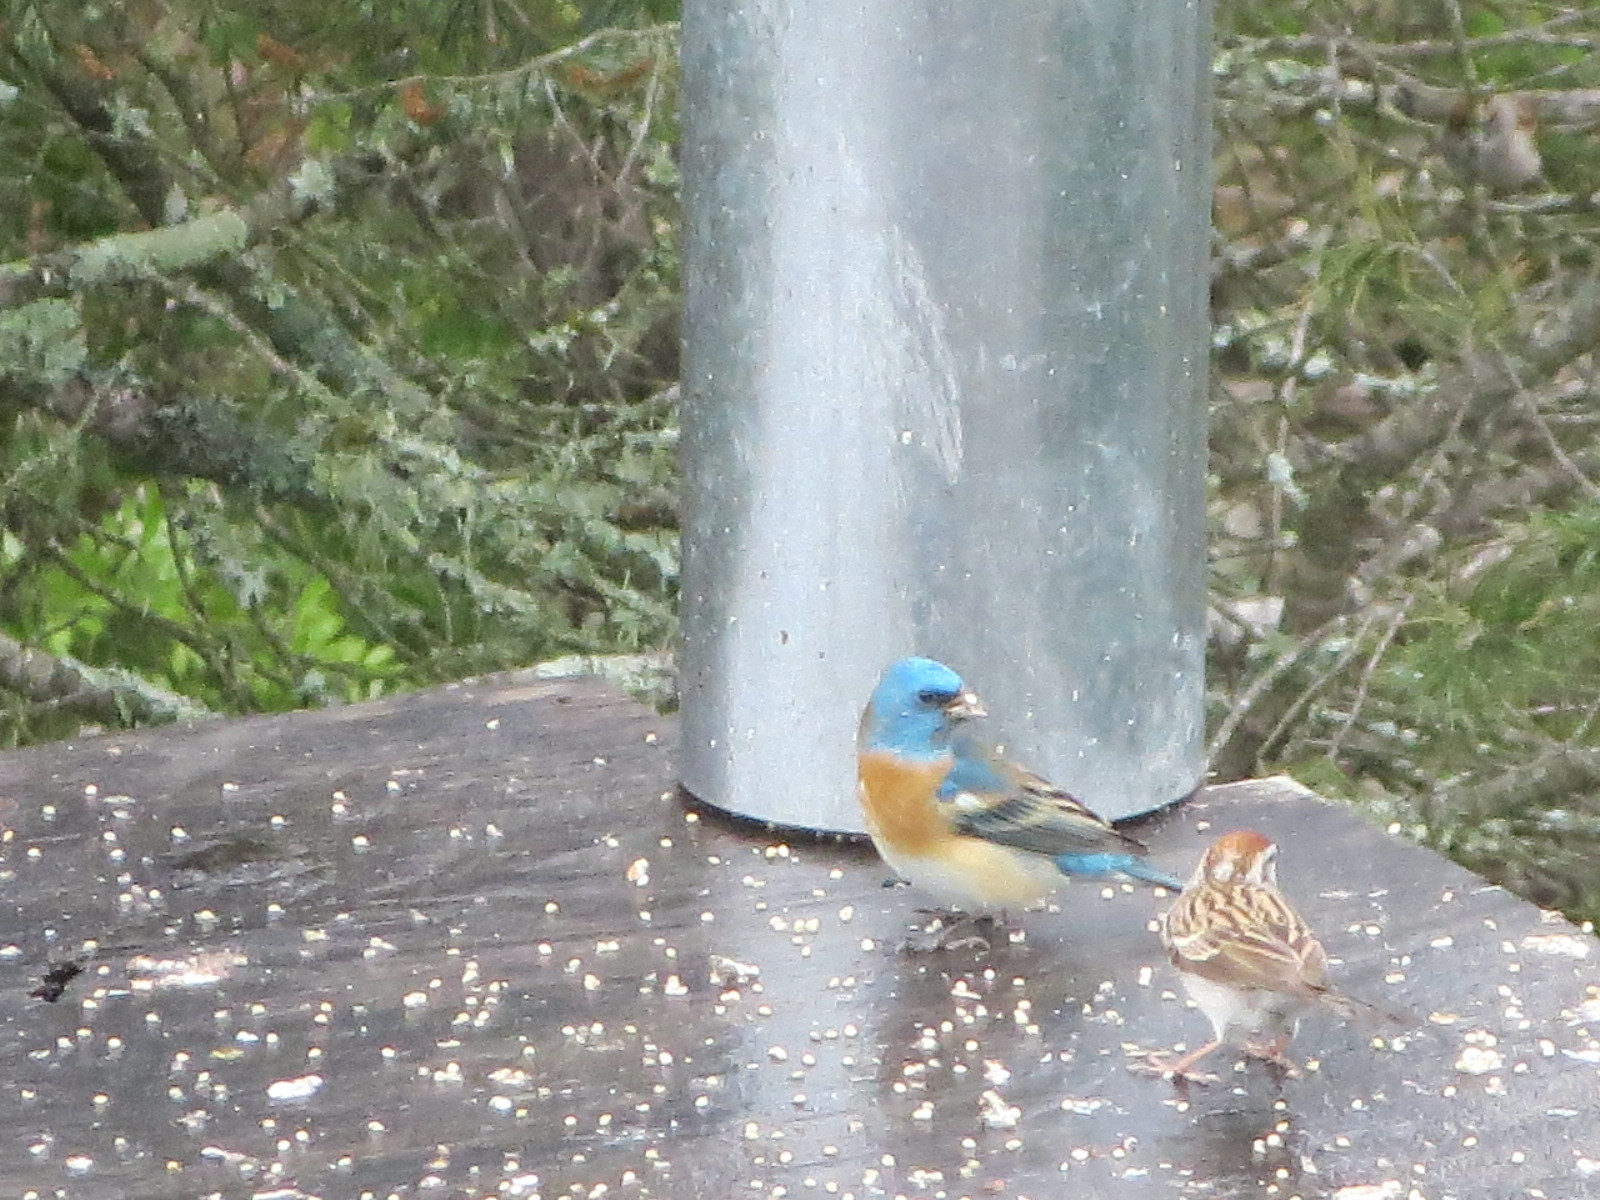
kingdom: Animalia
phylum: Chordata
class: Aves
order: Passeriformes
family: Cardinalidae
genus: Passerina
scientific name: Passerina amoena
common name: Lazuli bunting
